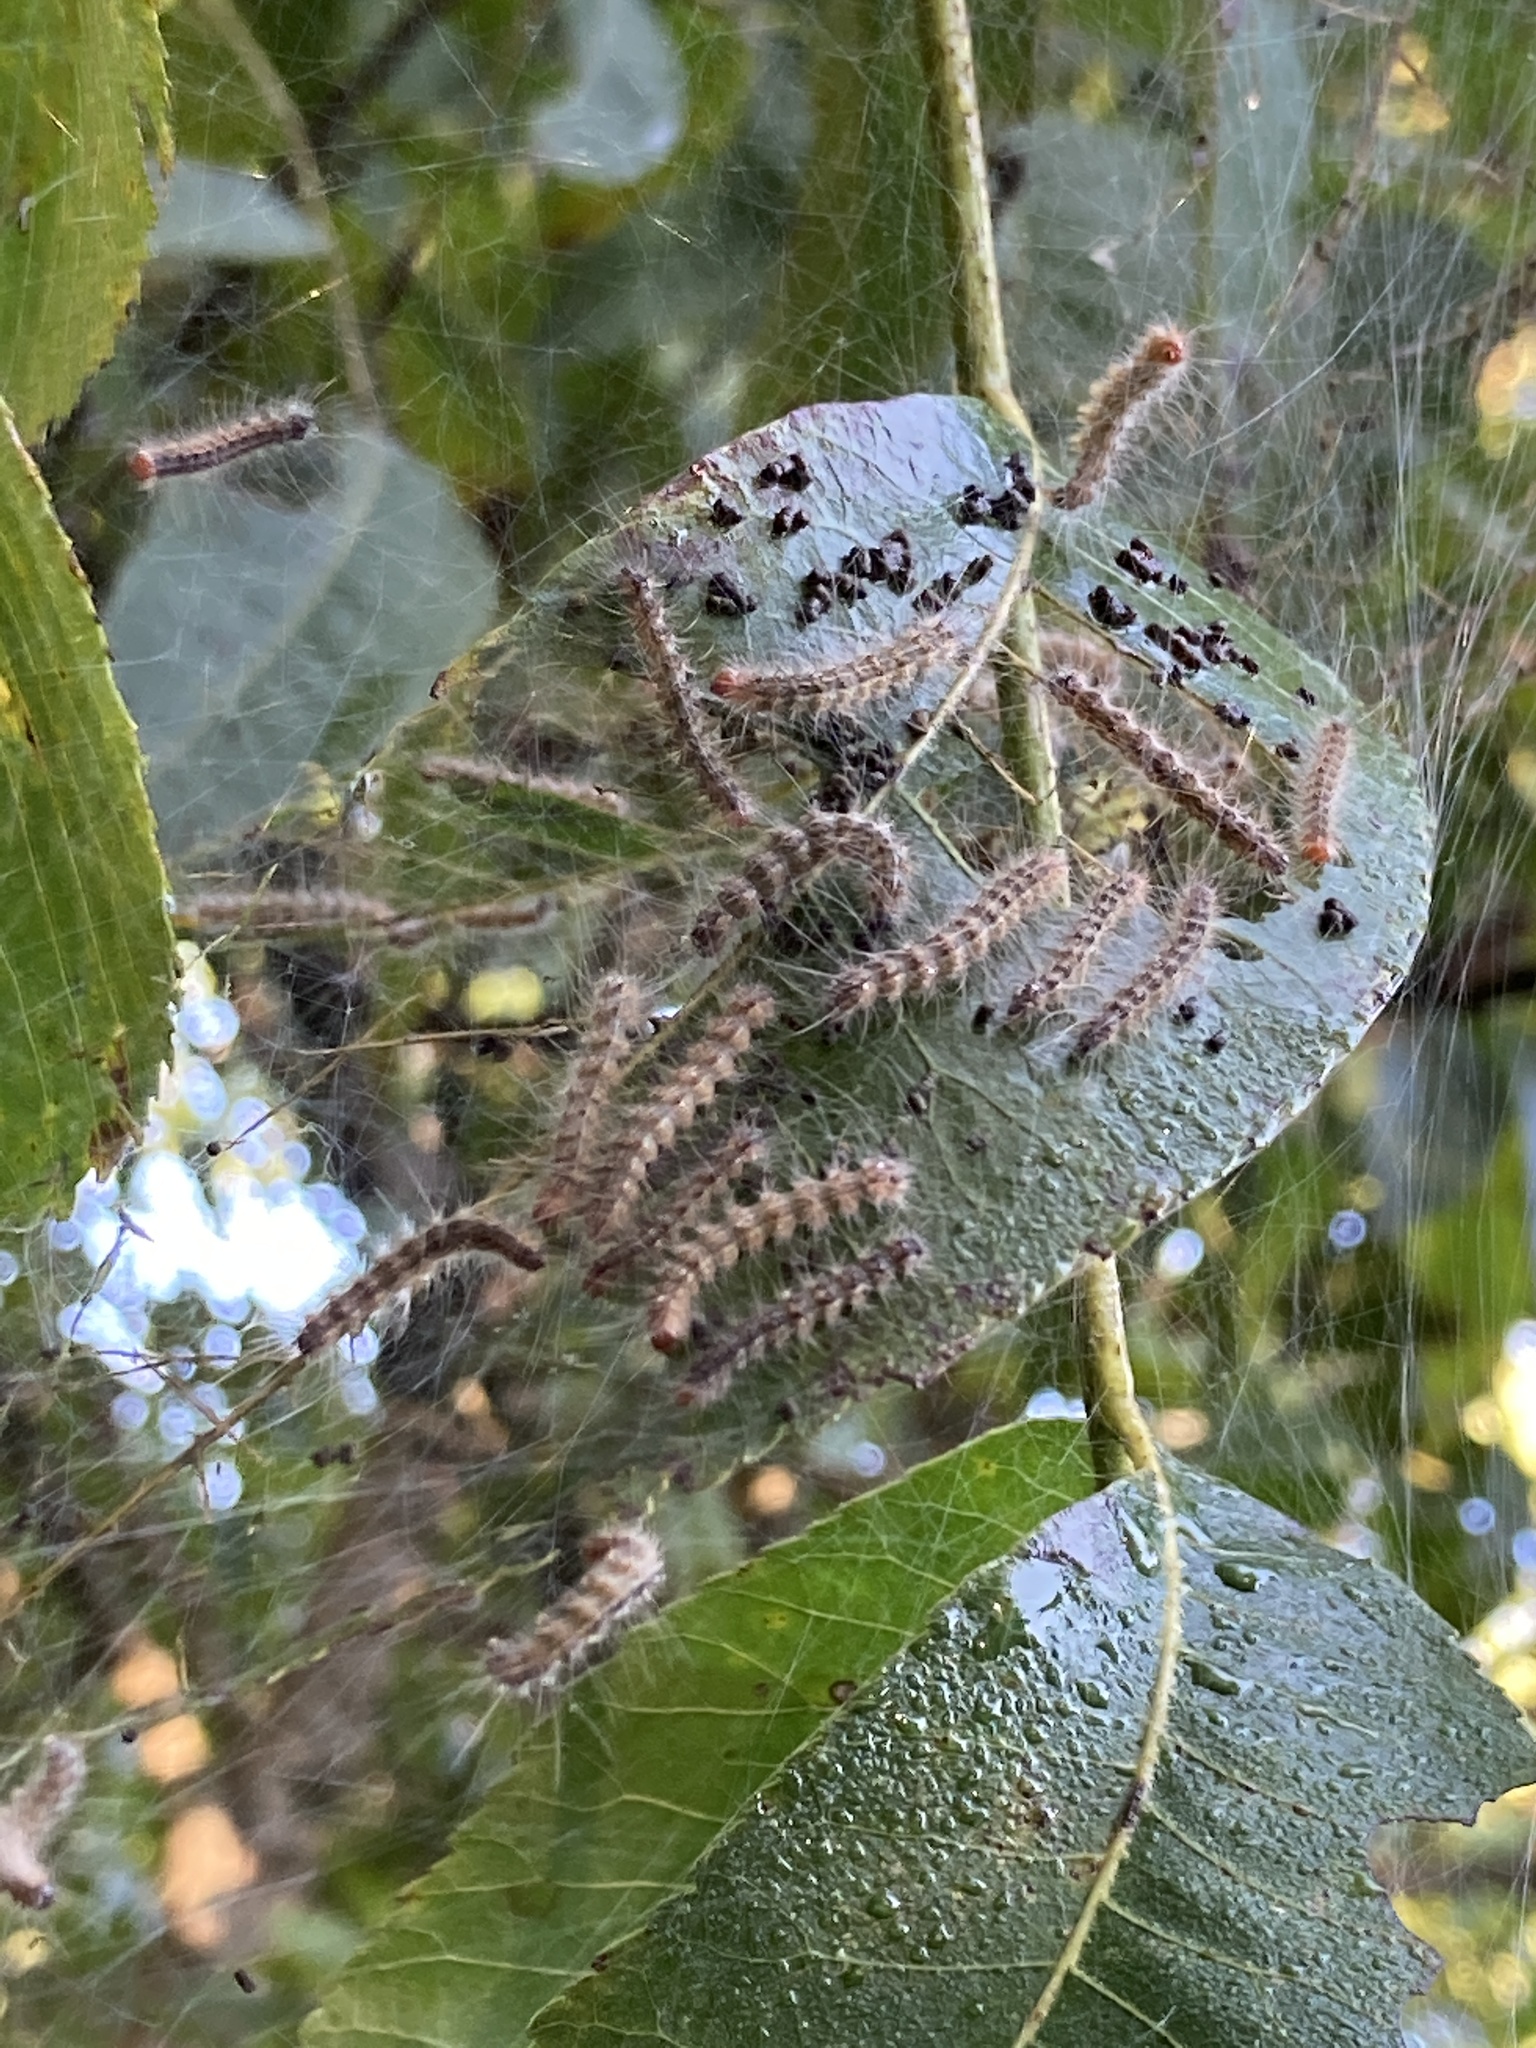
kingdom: Animalia
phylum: Arthropoda
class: Insecta
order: Lepidoptera
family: Erebidae
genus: Hyphantria
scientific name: Hyphantria cunea
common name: American white moth
